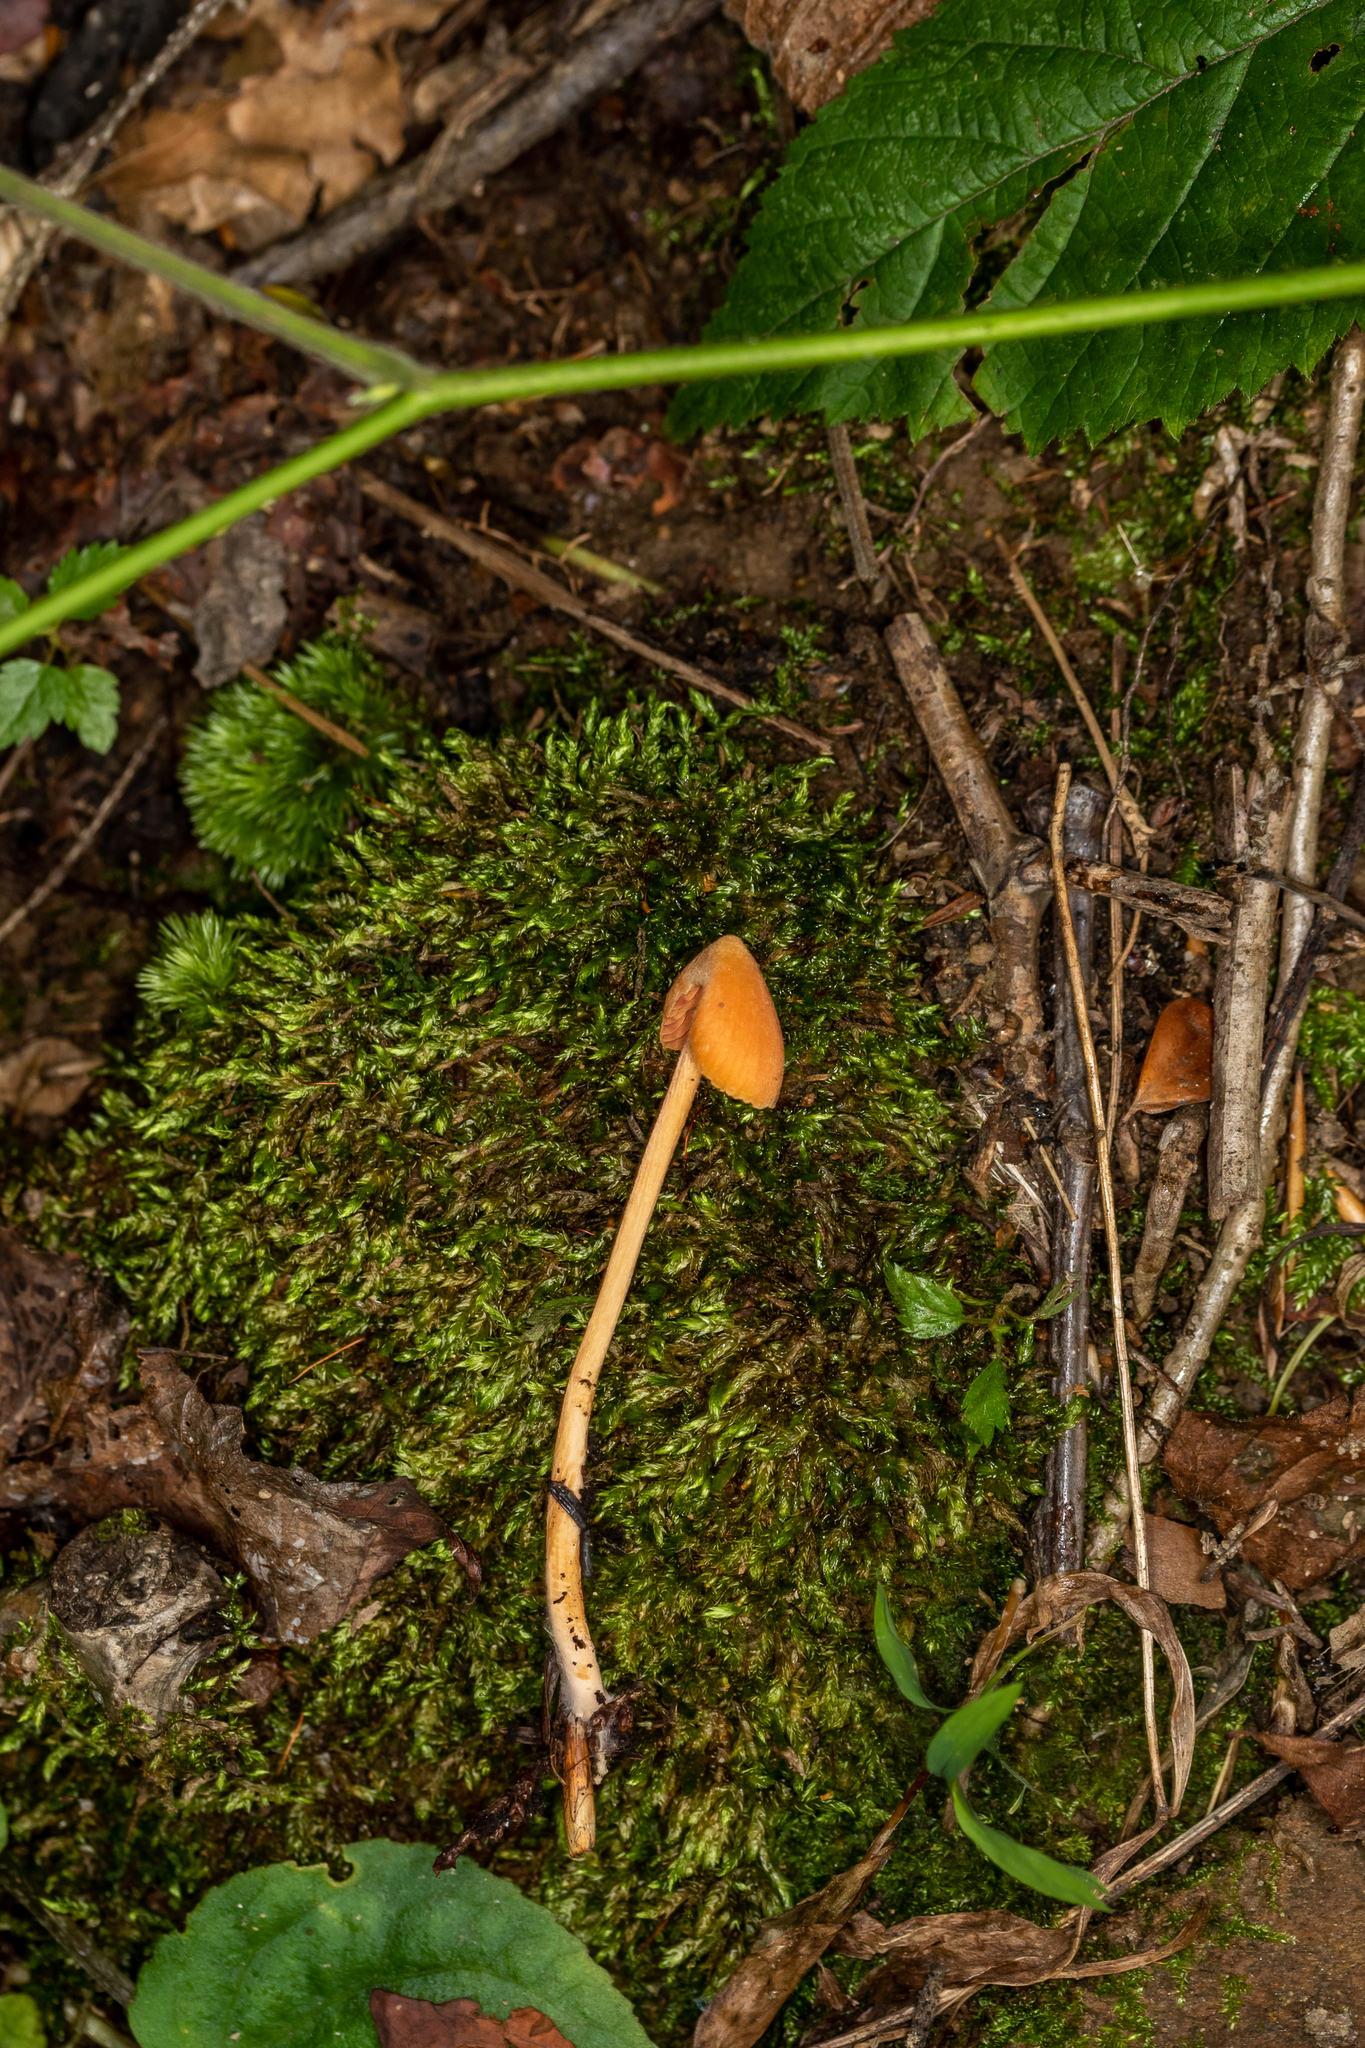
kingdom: Fungi
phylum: Basidiomycota
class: Agaricomycetes
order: Agaricales
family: Entolomataceae
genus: Entoloma
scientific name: Entoloma quadratum
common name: Salmon pinkgill
